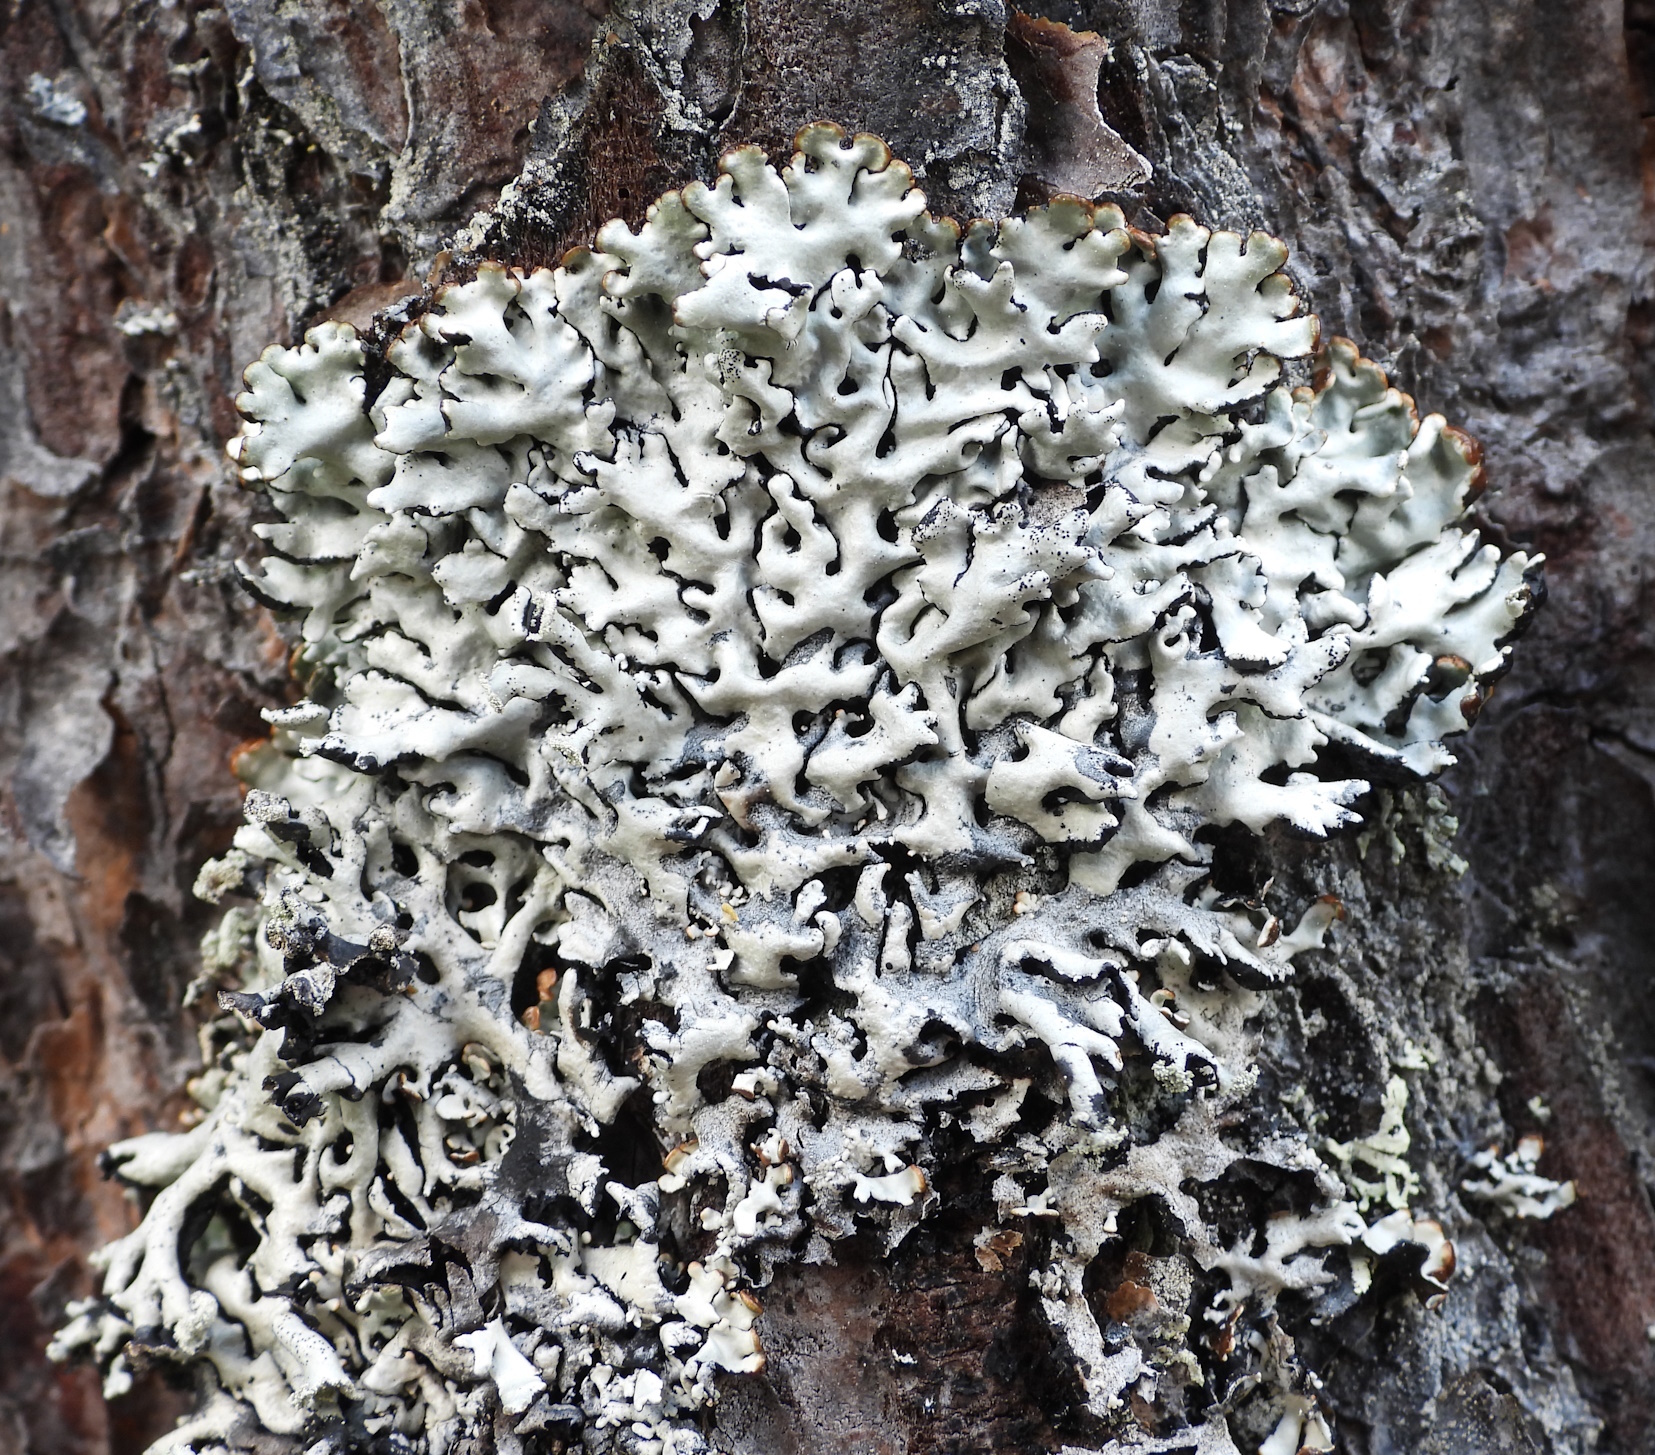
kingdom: Fungi
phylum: Ascomycota
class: Lecanoromycetes
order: Lecanorales
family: Parmeliaceae
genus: Hypogymnia
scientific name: Hypogymnia physodes
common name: Dark crottle
